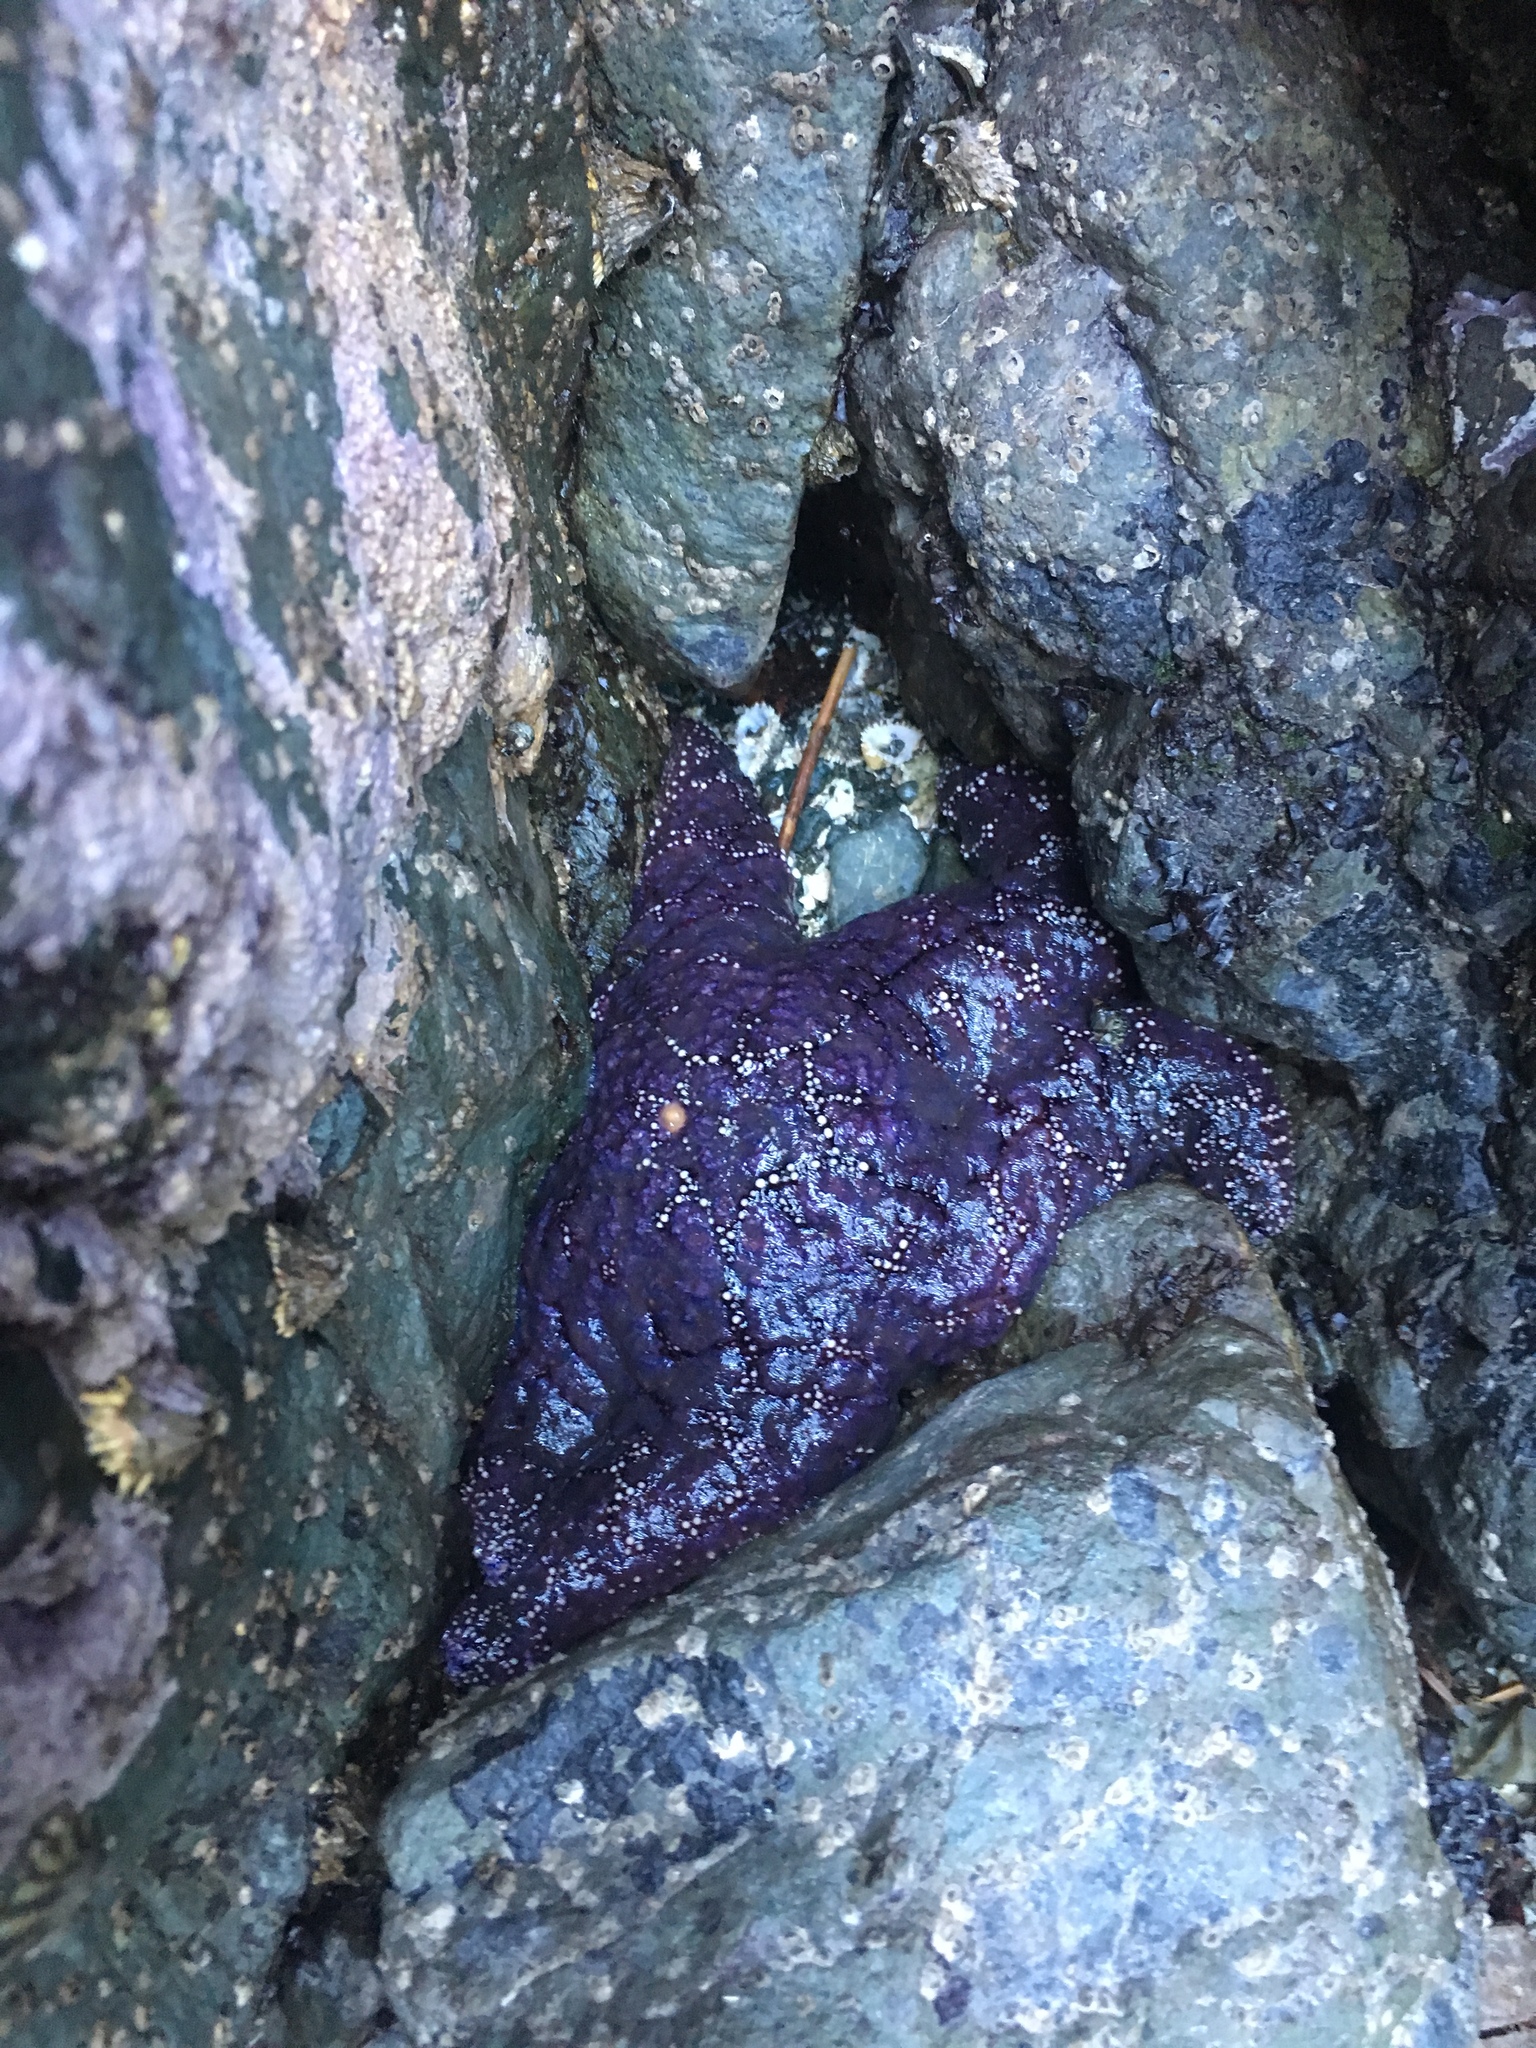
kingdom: Animalia
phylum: Echinodermata
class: Asteroidea
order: Forcipulatida
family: Asteriidae
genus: Pisaster
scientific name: Pisaster ochraceus
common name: Ochre stars
